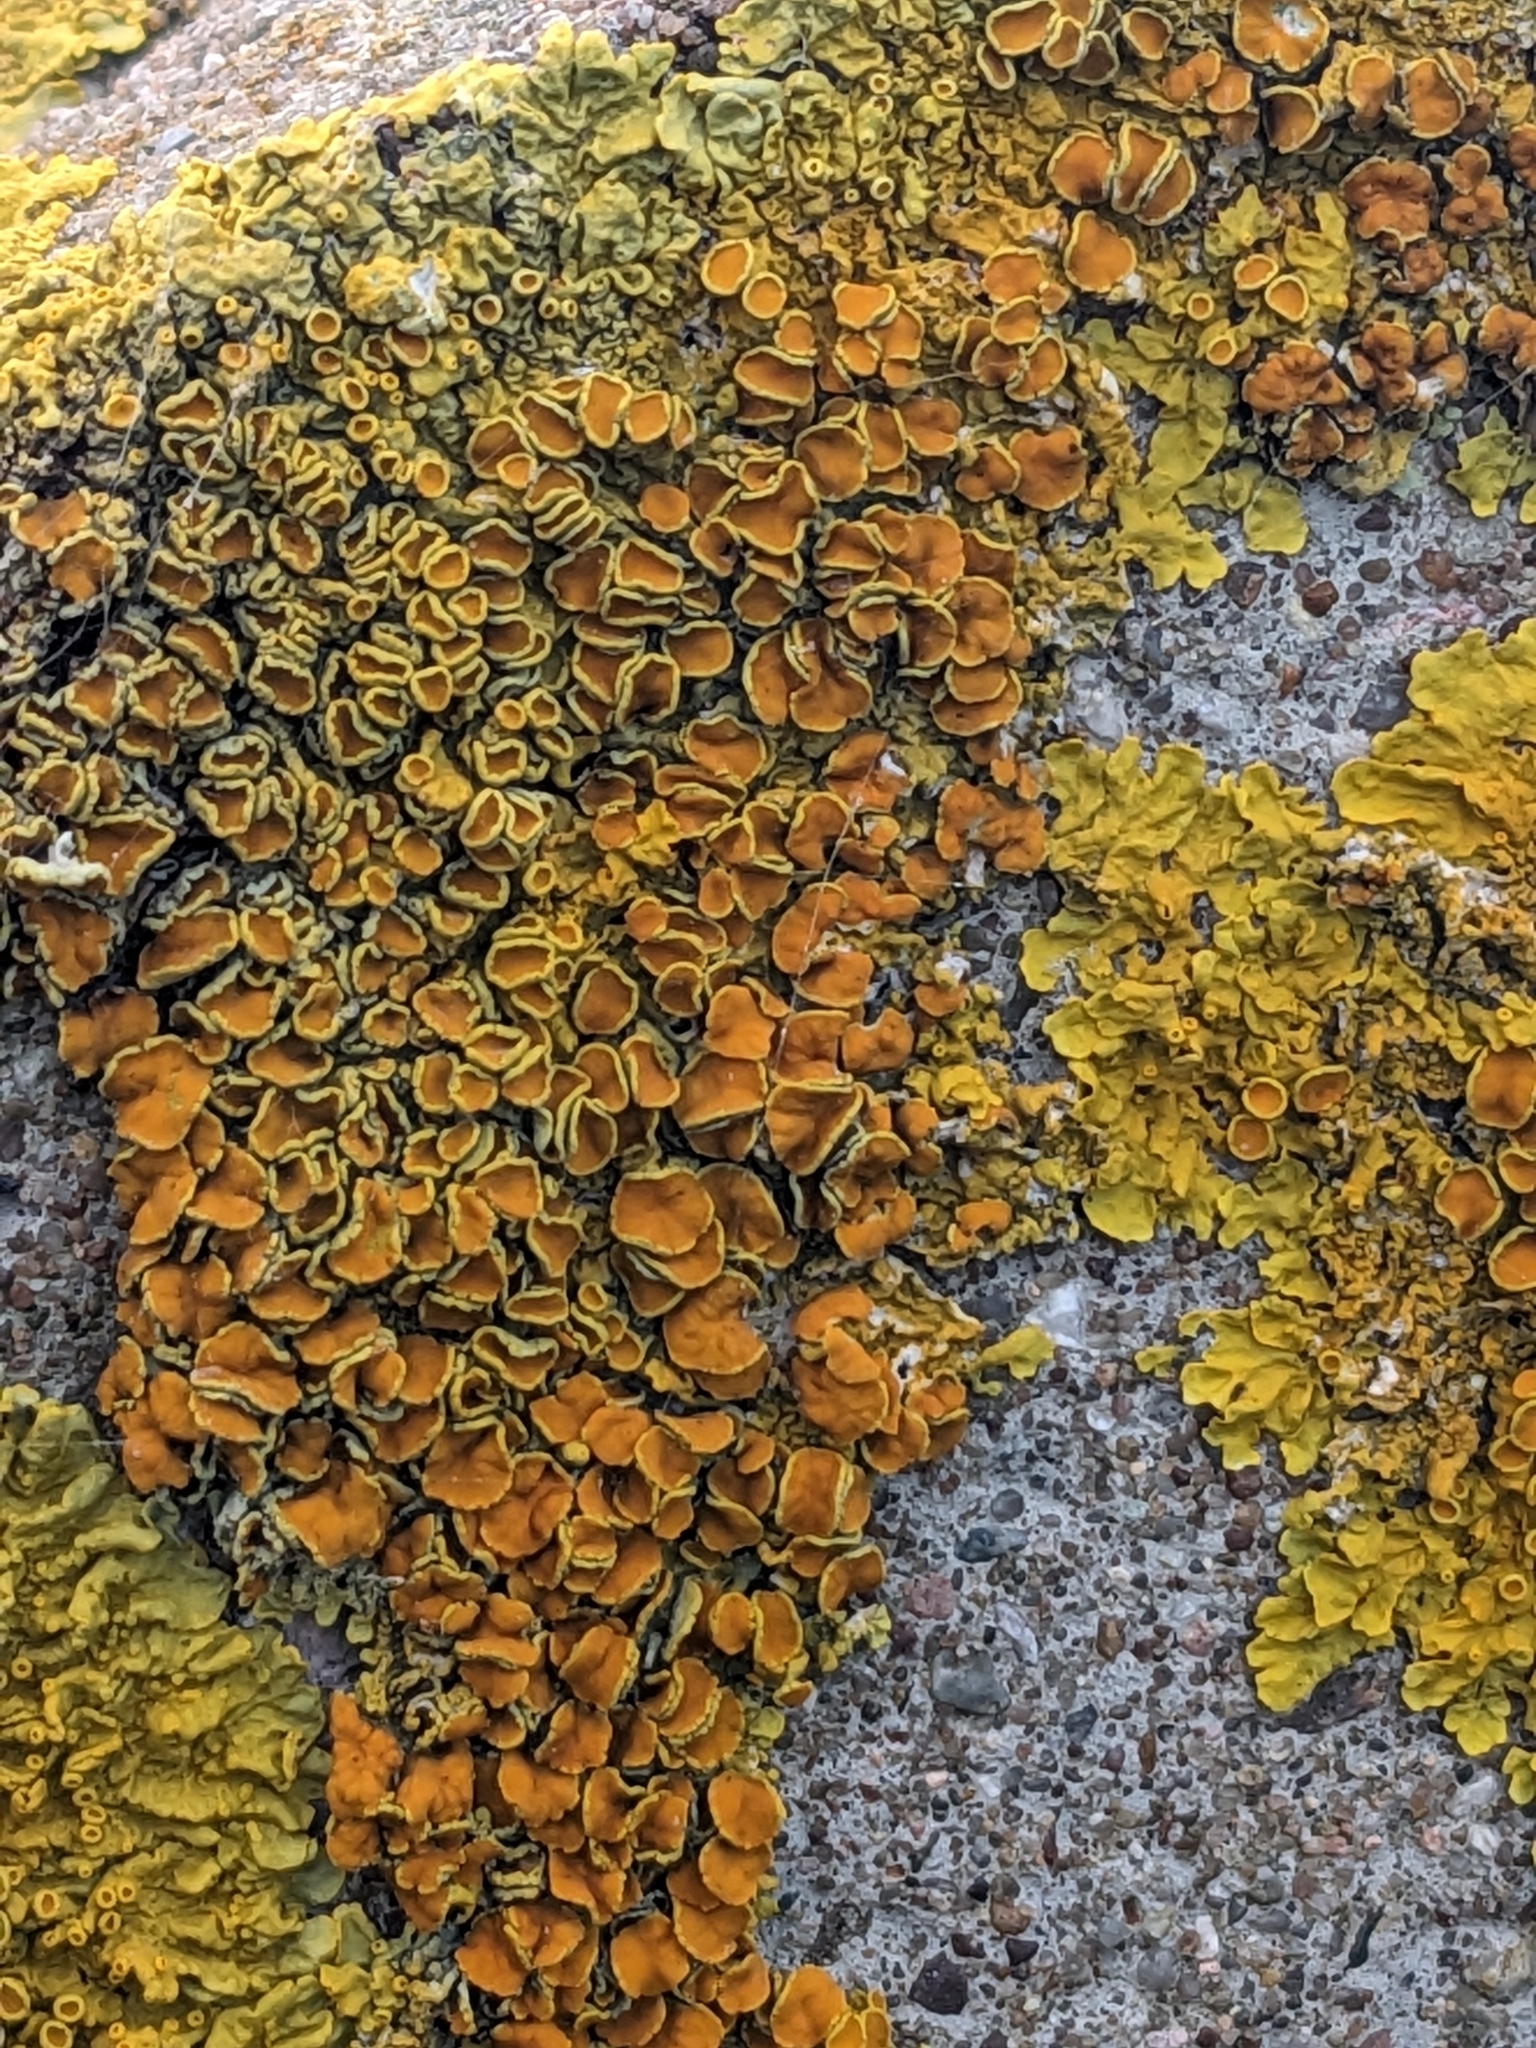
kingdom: Fungi
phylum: Ascomycota
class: Lecanoromycetes
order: Teloschistales
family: Teloschistaceae
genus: Xanthoria
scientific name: Xanthoria parietina
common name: Common orange lichen
